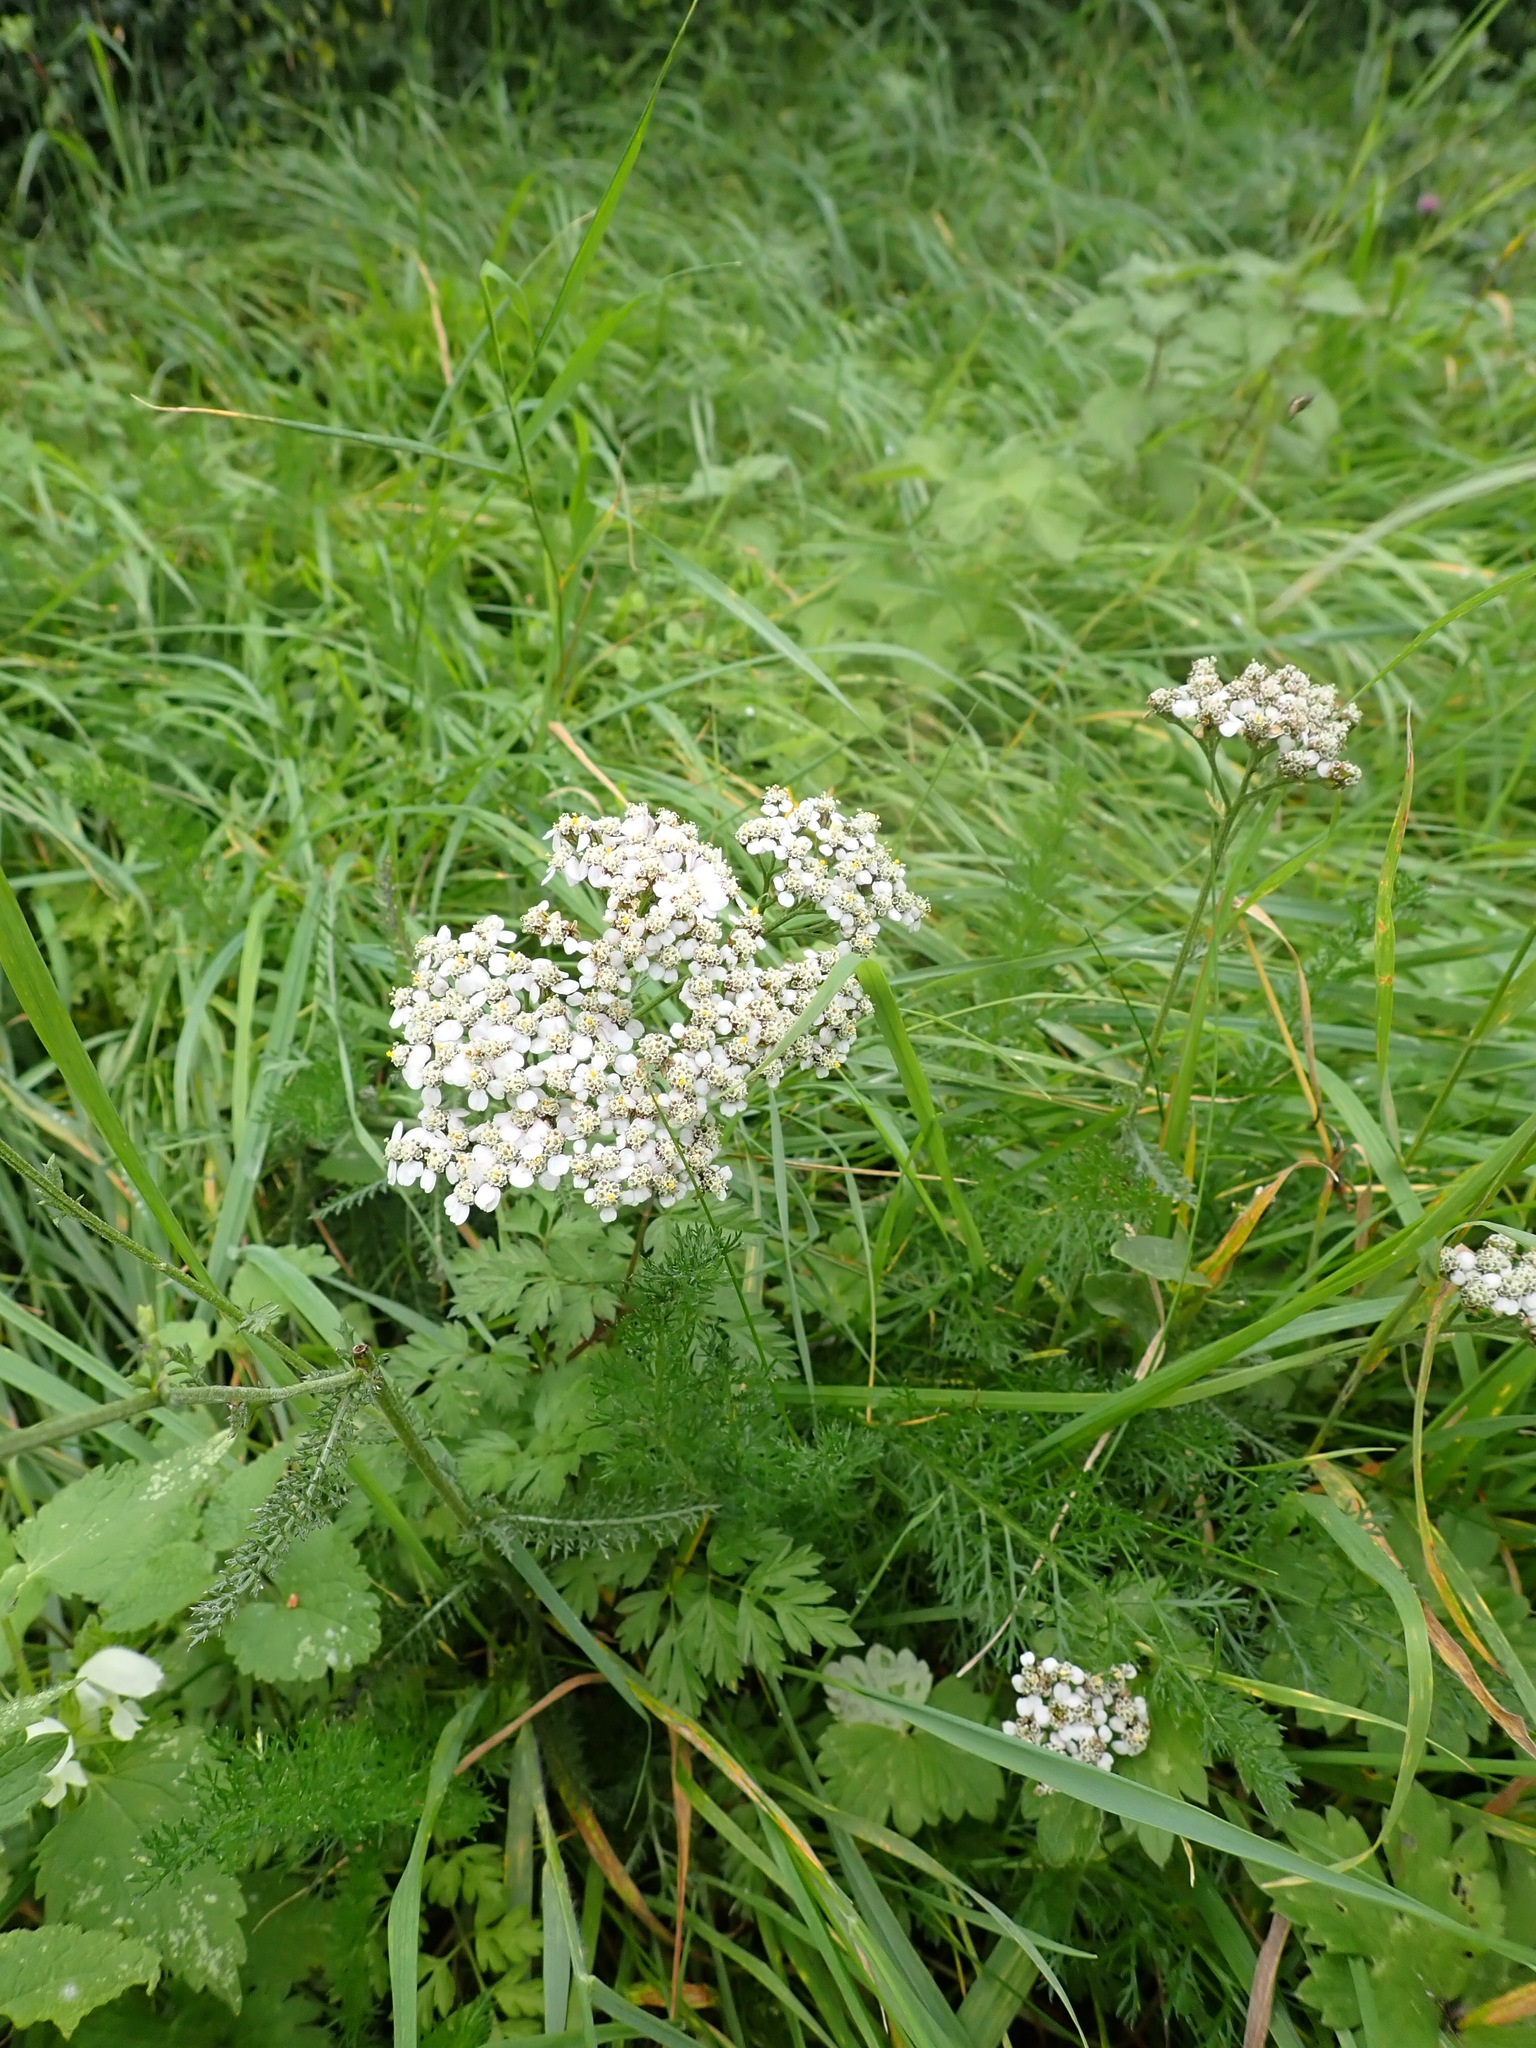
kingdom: Plantae
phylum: Tracheophyta
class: Magnoliopsida
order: Asterales
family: Asteraceae
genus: Achillea
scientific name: Achillea millefolium
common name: Yarrow
